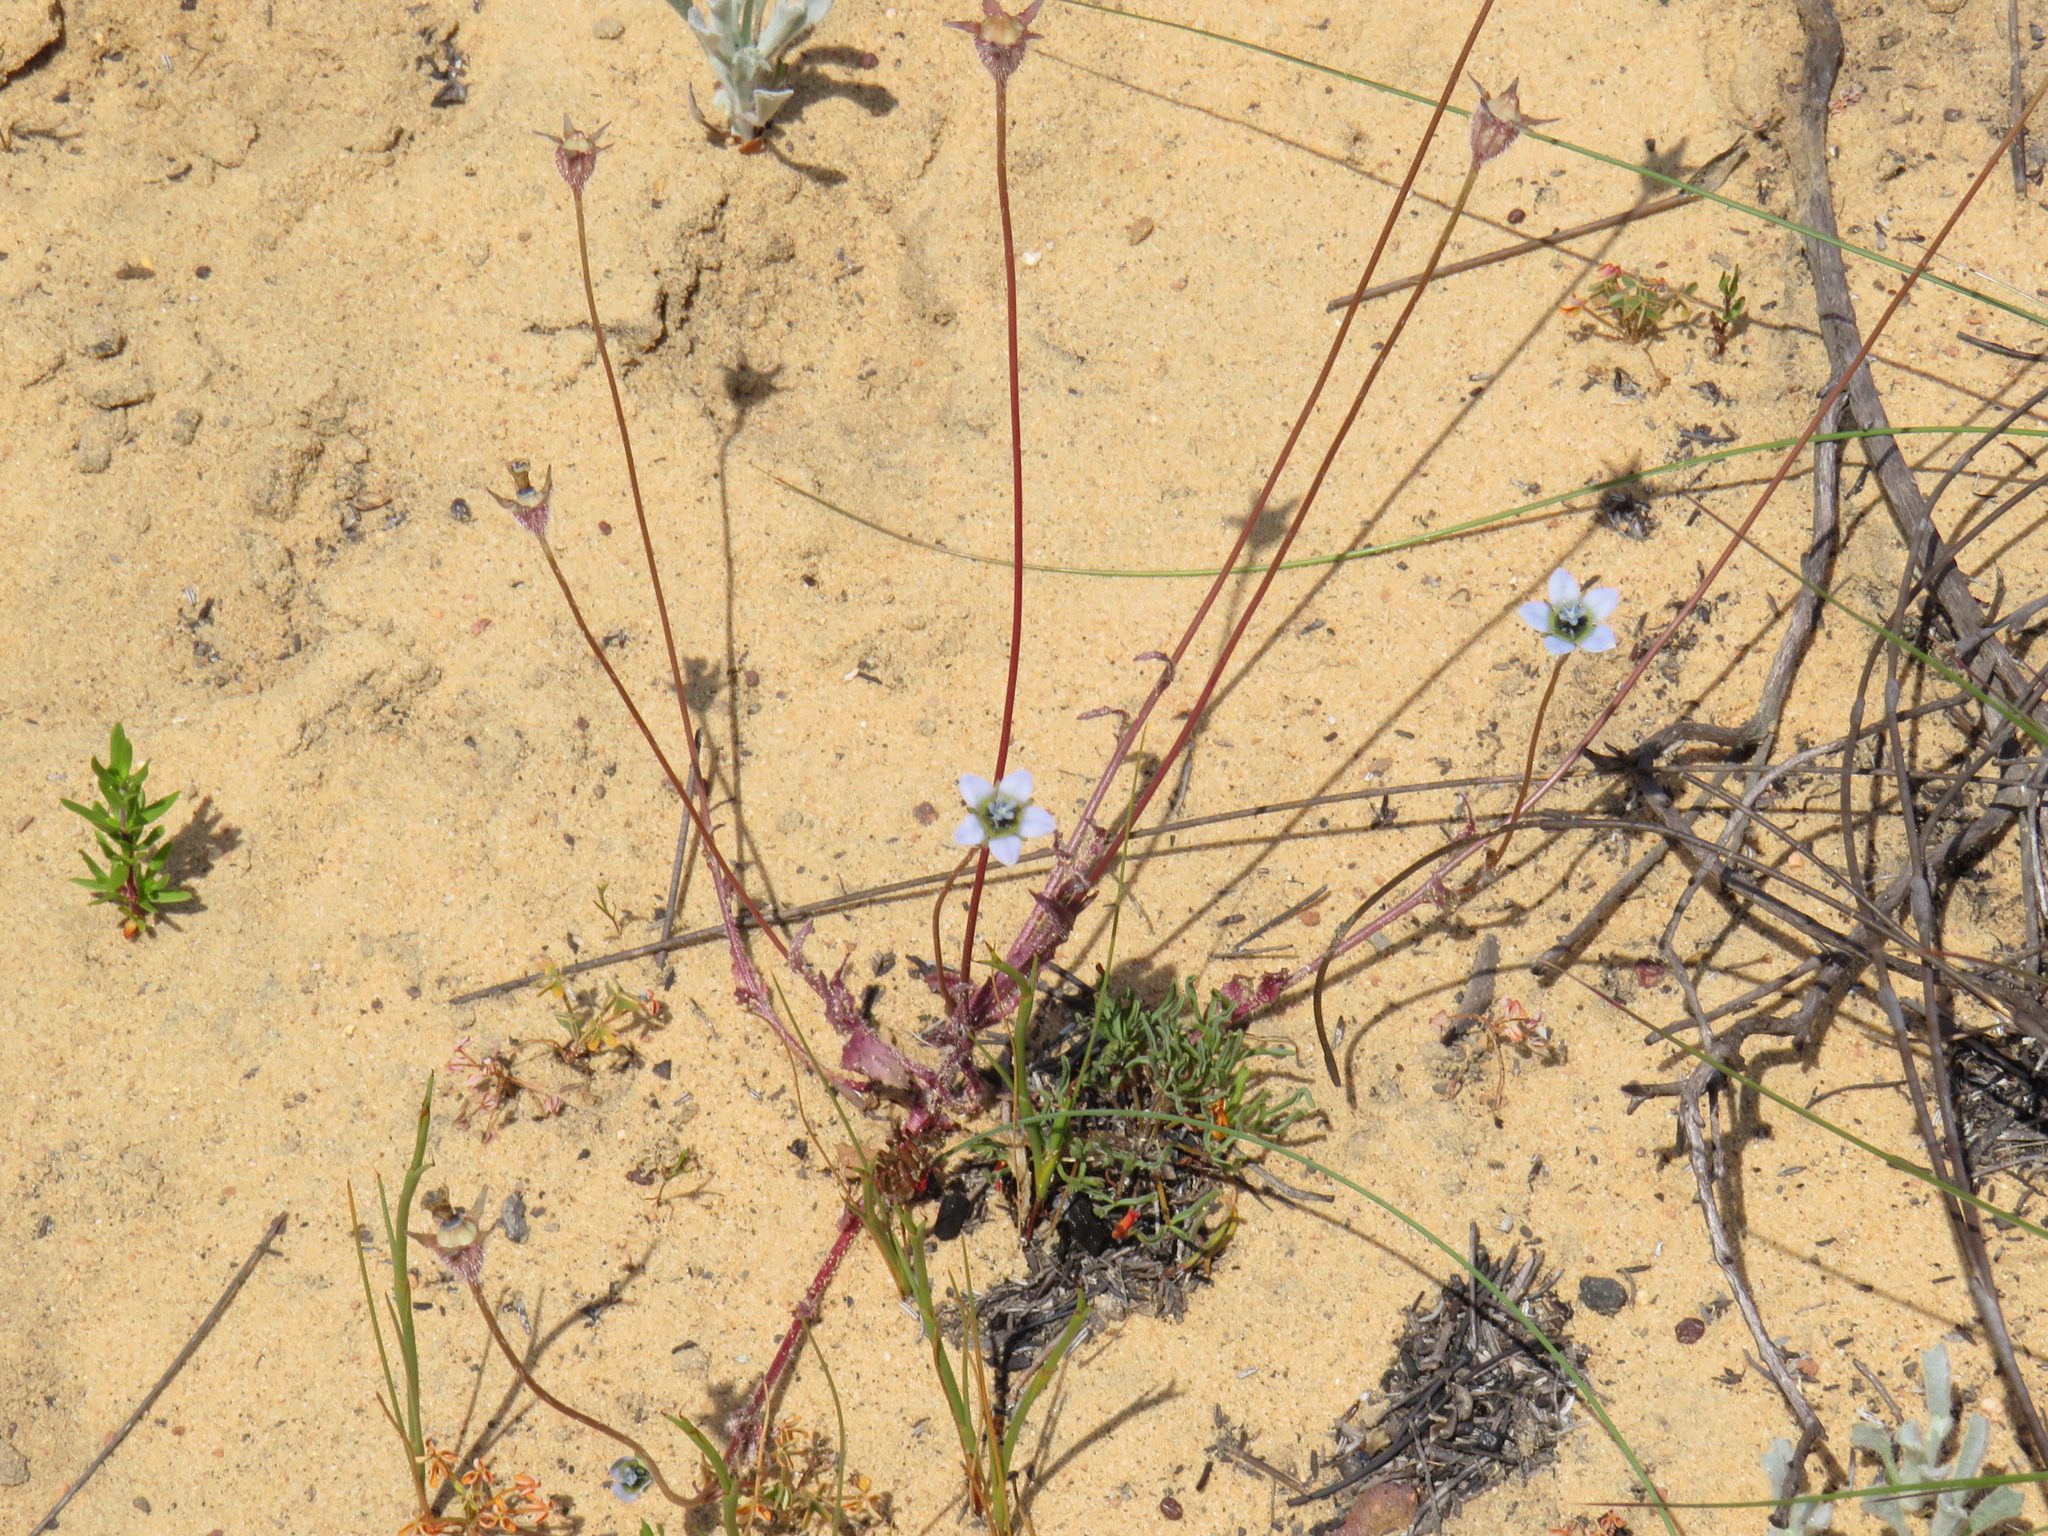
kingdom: Plantae
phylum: Tracheophyta
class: Magnoliopsida
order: Asterales
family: Campanulaceae
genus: Wahlenbergia
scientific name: Wahlenbergia capensis
